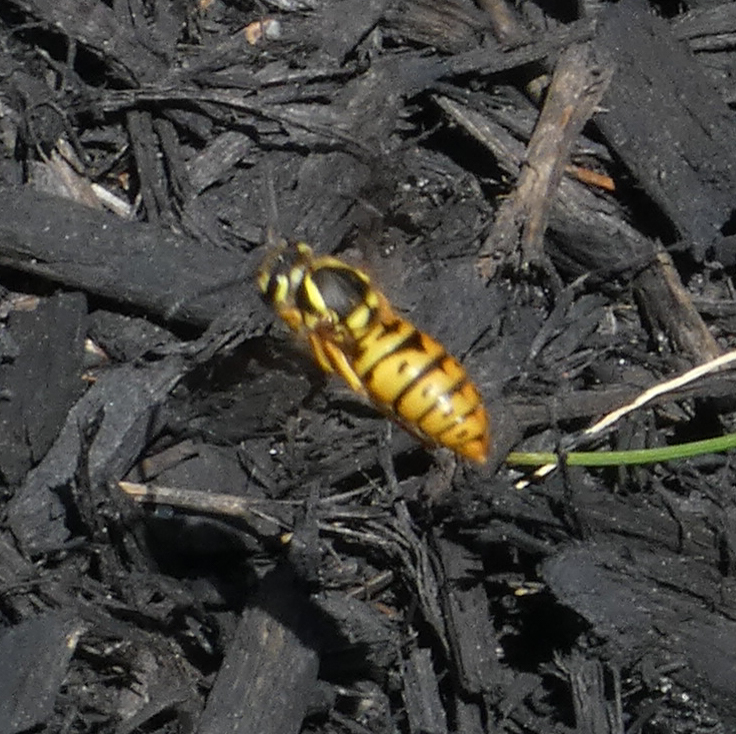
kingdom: Animalia
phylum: Arthropoda
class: Insecta
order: Hymenoptera
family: Vespidae
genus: Vespula
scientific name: Vespula maculifrons
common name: Eastern yellowjacket
